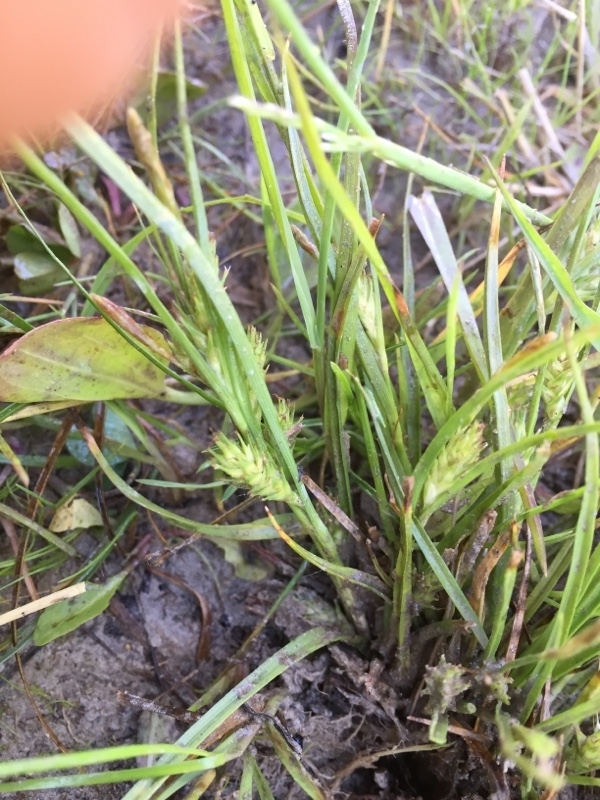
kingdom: Plantae
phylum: Tracheophyta
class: Liliopsida
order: Poales
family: Cyperaceae
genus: Carex
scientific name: Carex secalina
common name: Rye sedge
